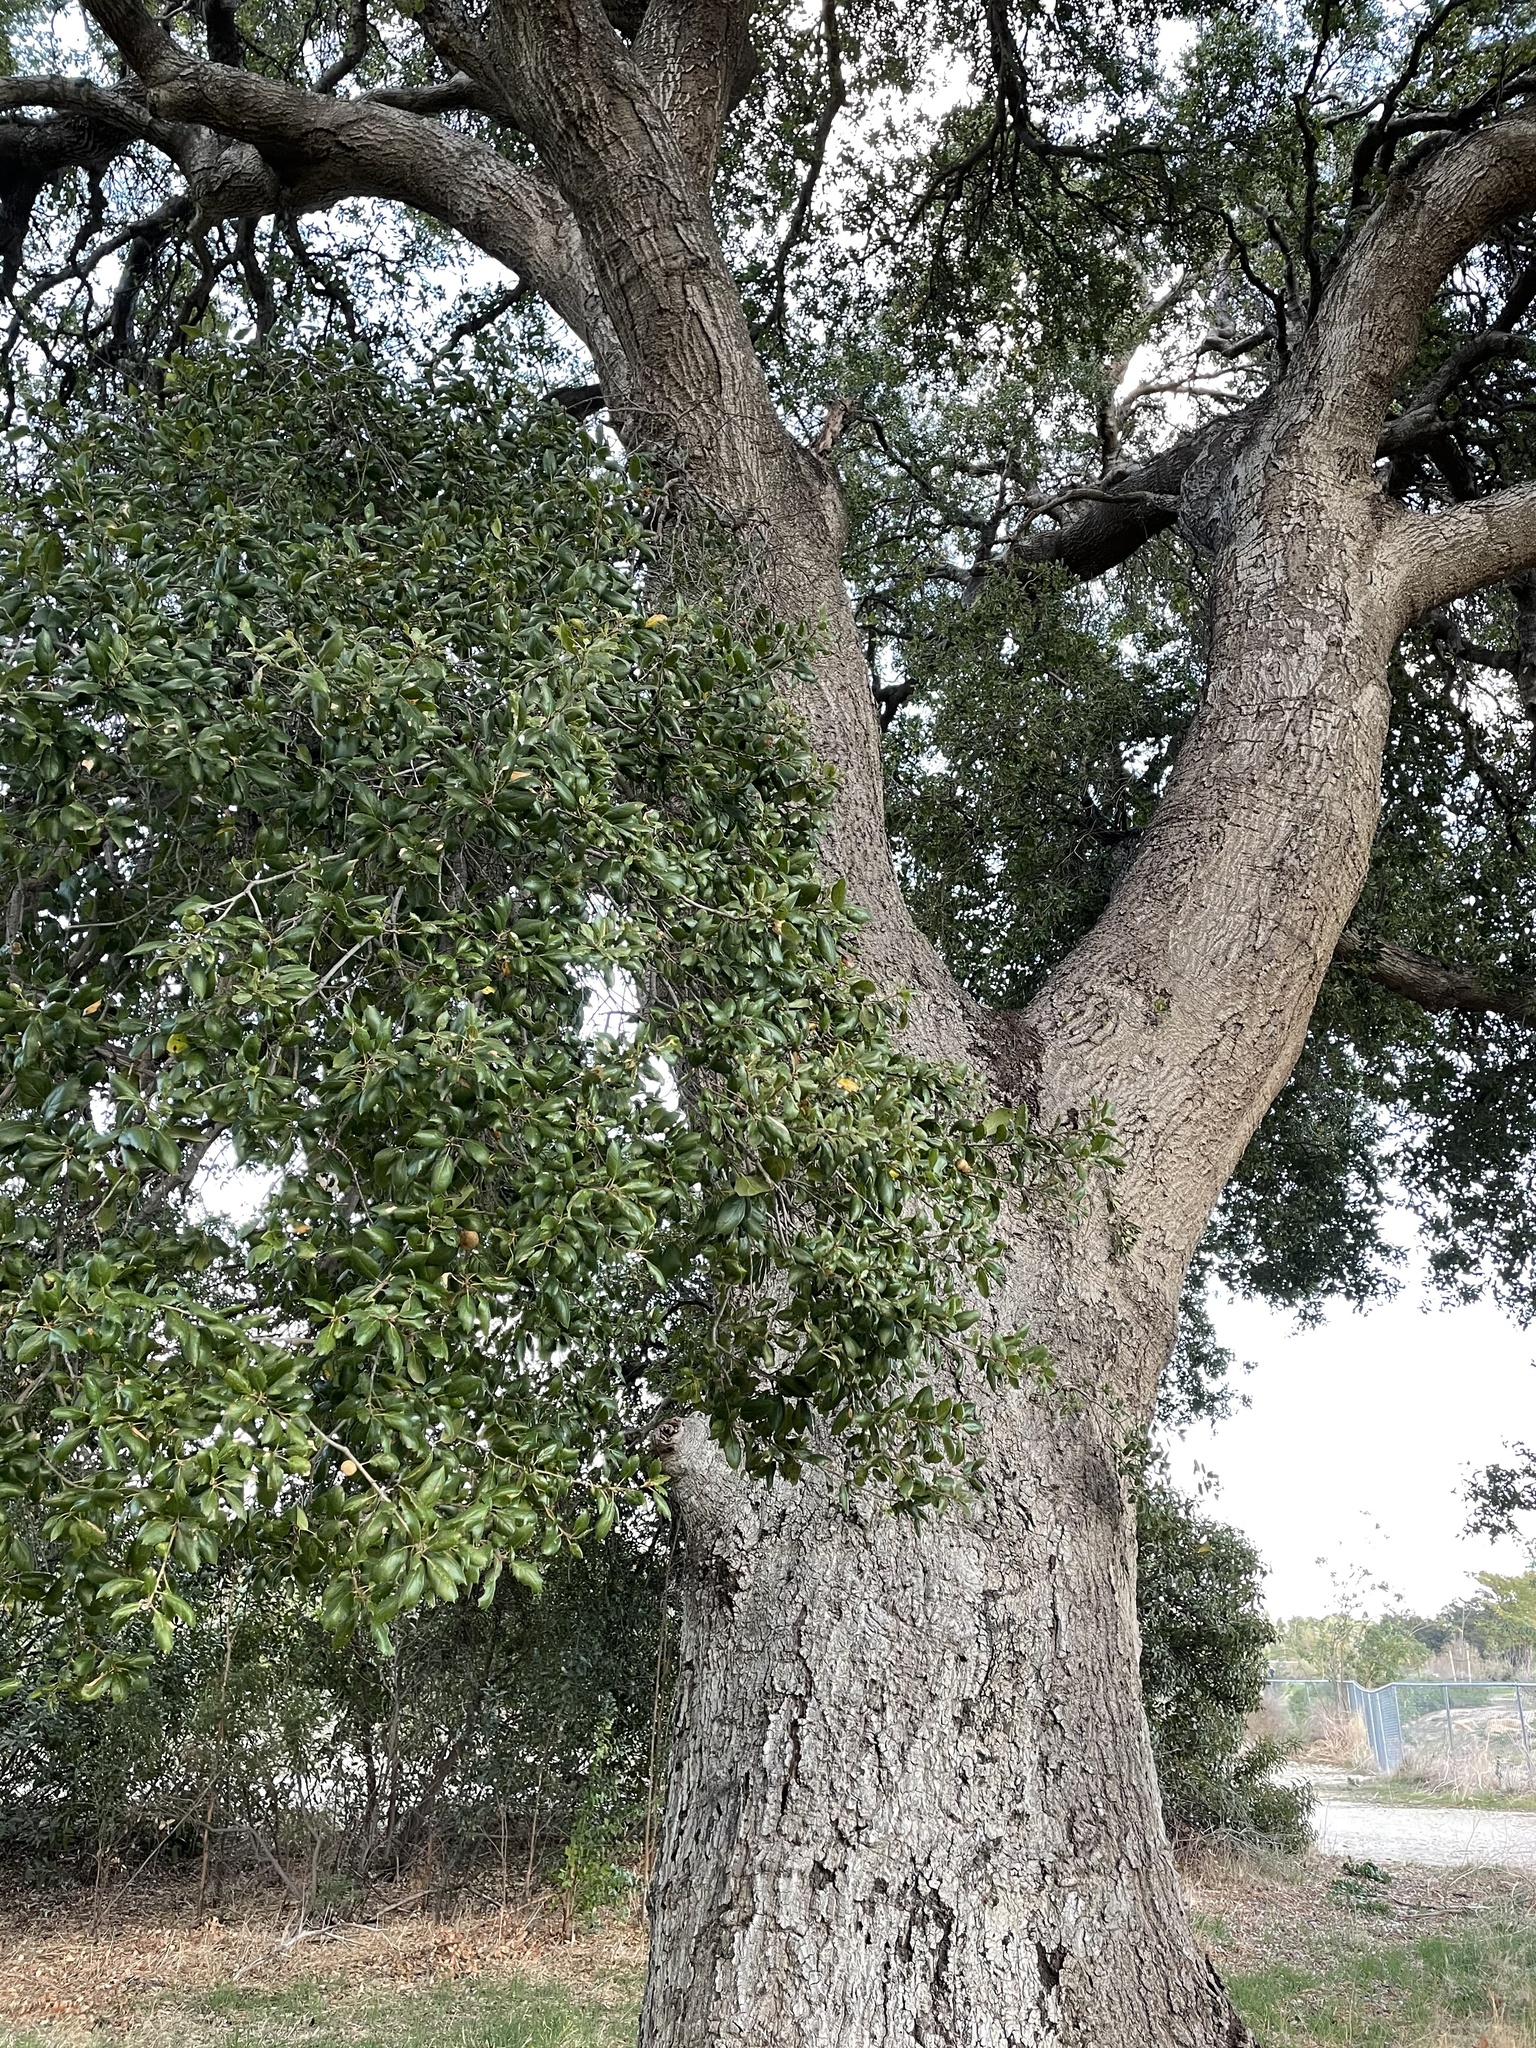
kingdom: Plantae
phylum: Tracheophyta
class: Magnoliopsida
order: Fagales
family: Fagaceae
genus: Quercus
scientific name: Quercus agrifolia
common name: California live oak
